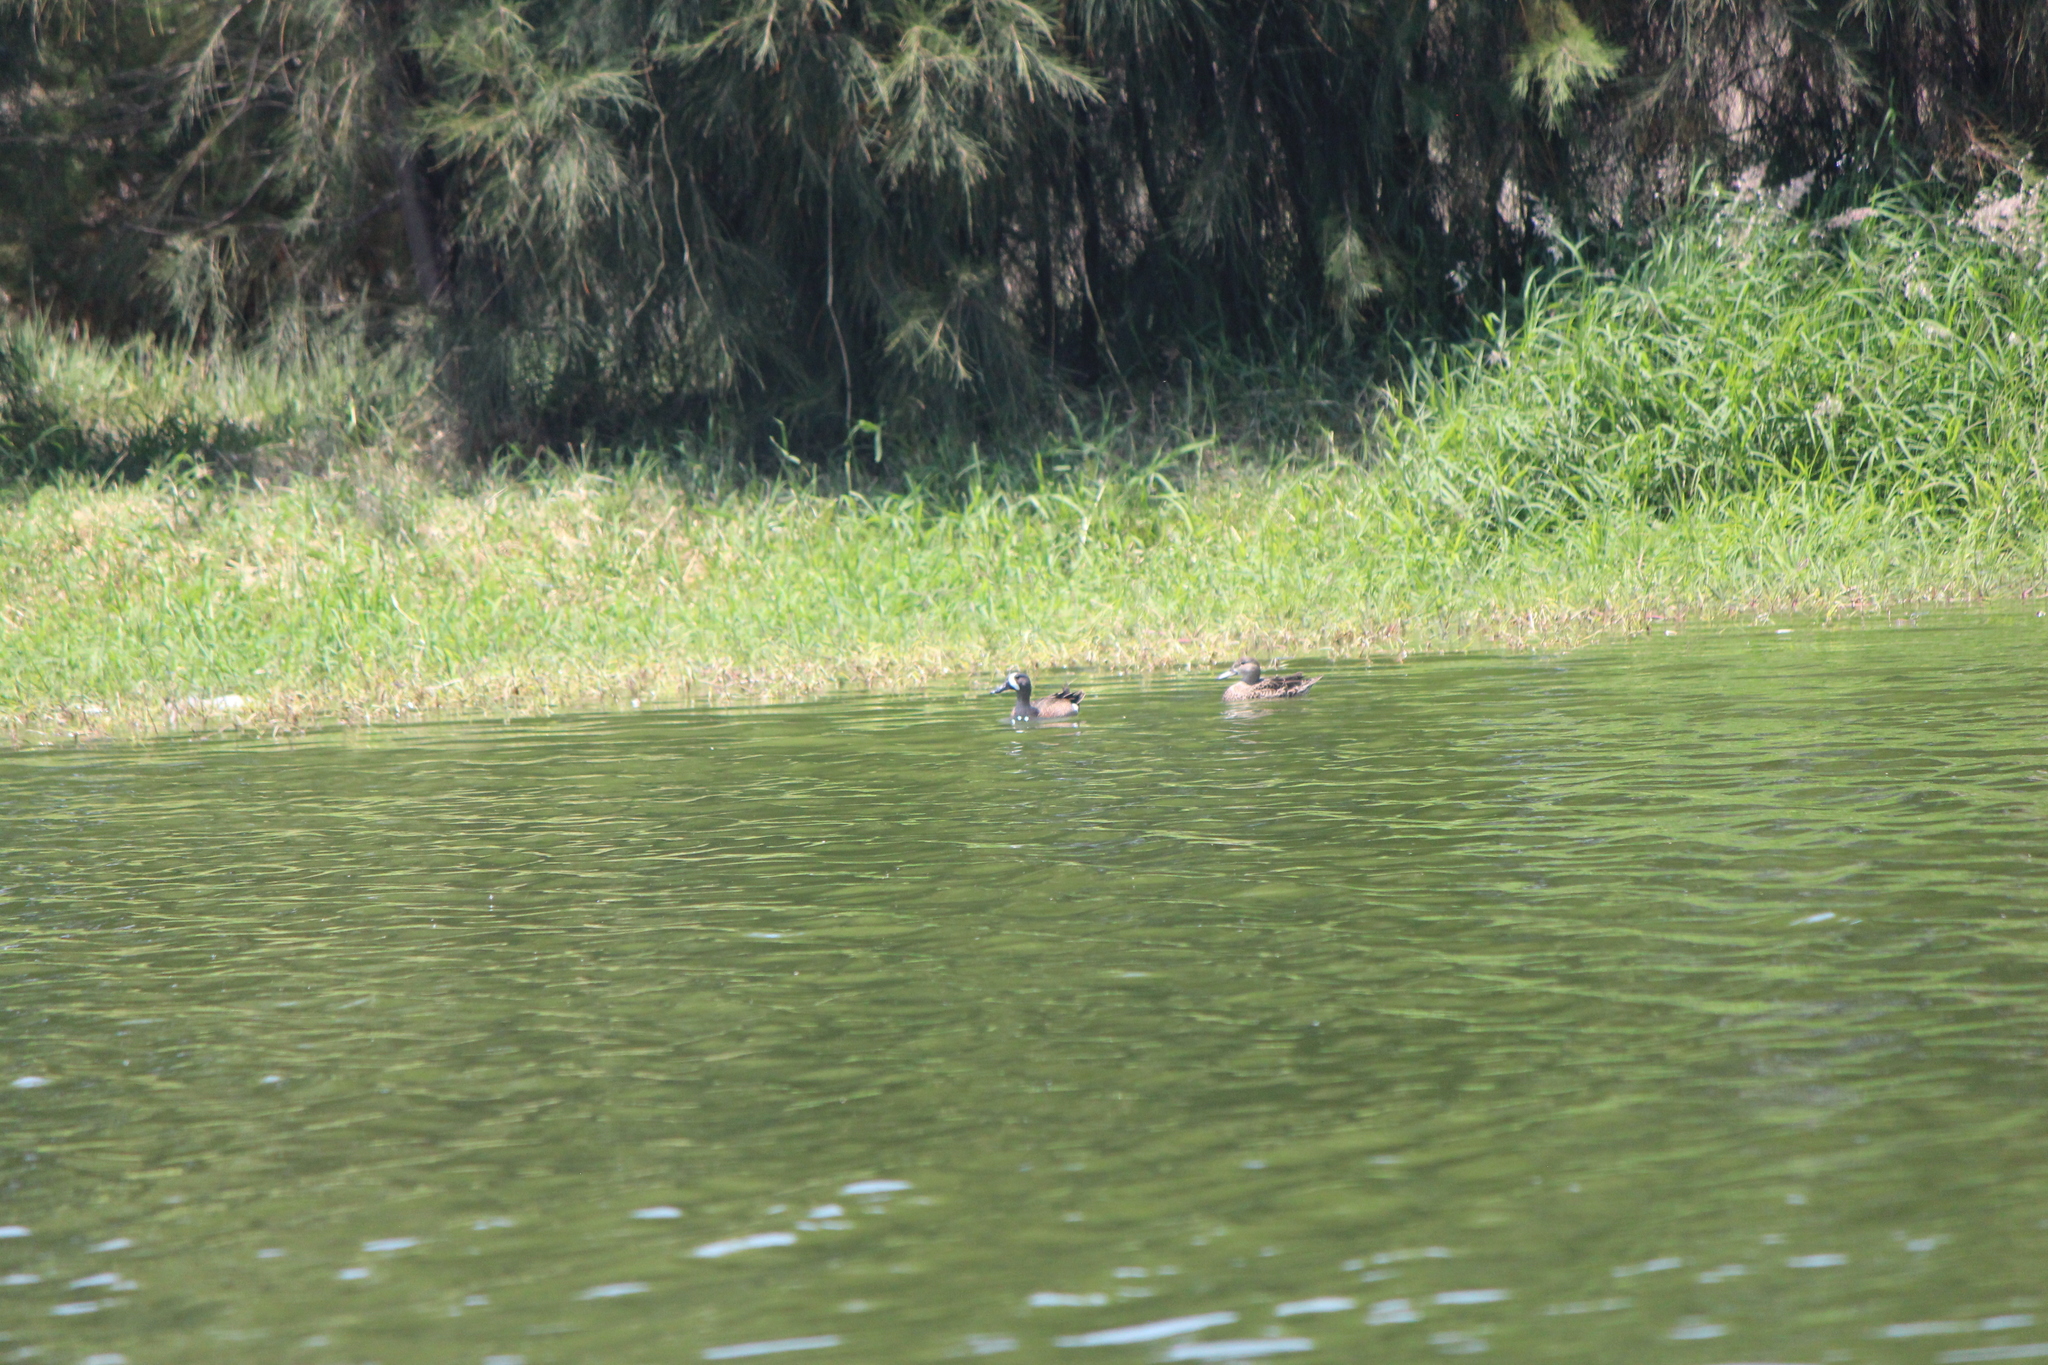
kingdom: Animalia
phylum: Chordata
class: Aves
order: Anseriformes
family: Anatidae
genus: Spatula
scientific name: Spatula discors
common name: Blue-winged teal
